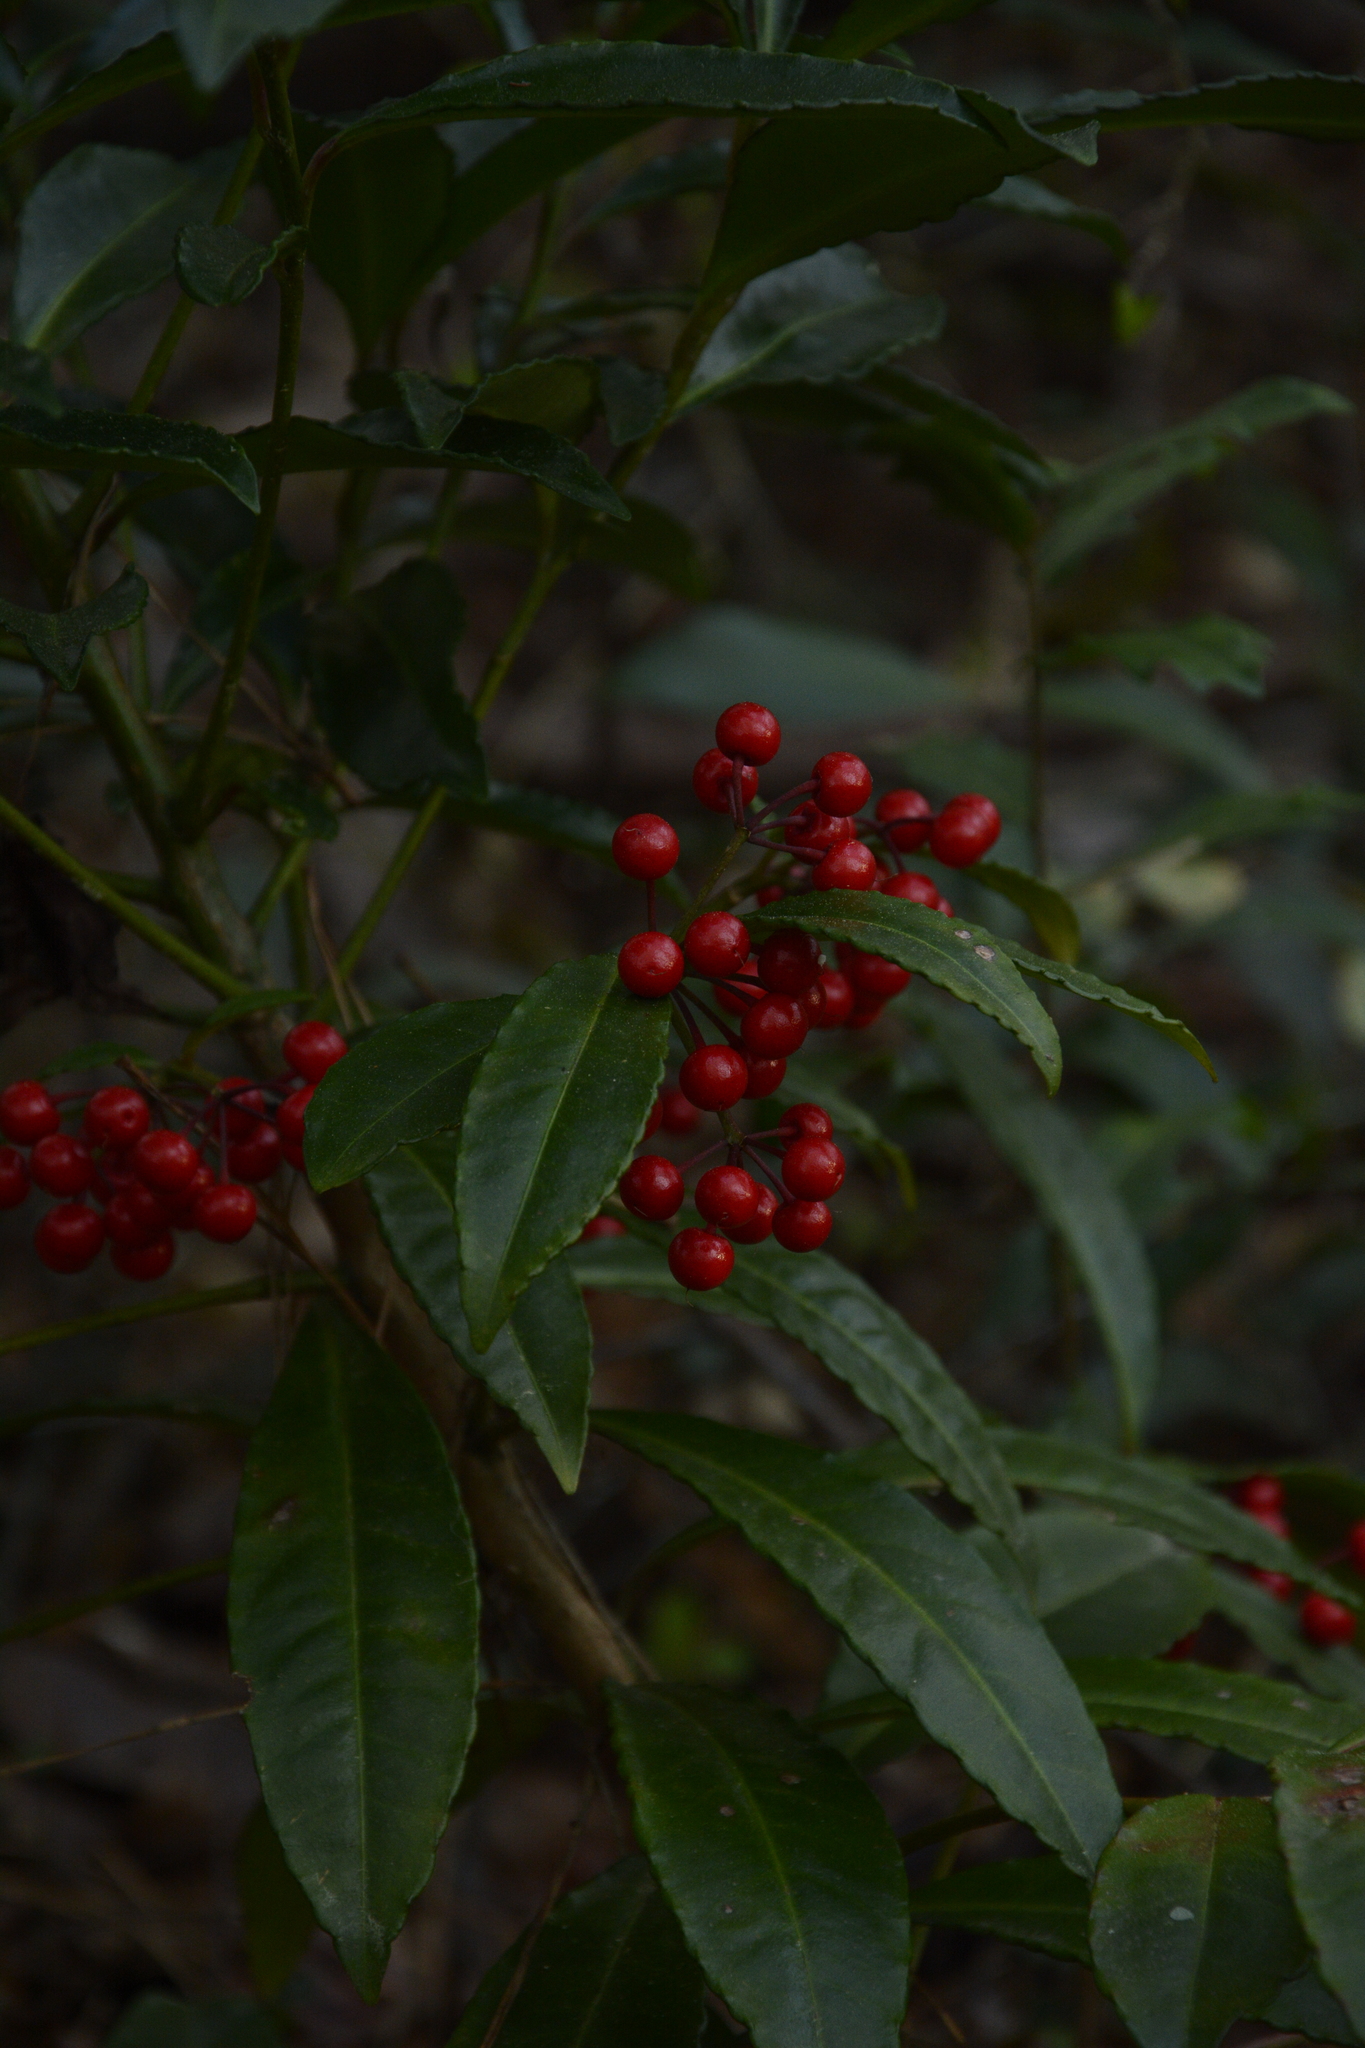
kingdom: Plantae
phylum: Tracheophyta
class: Magnoliopsida
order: Ericales
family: Primulaceae
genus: Ardisia
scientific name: Ardisia crenata
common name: Hen's eyes
